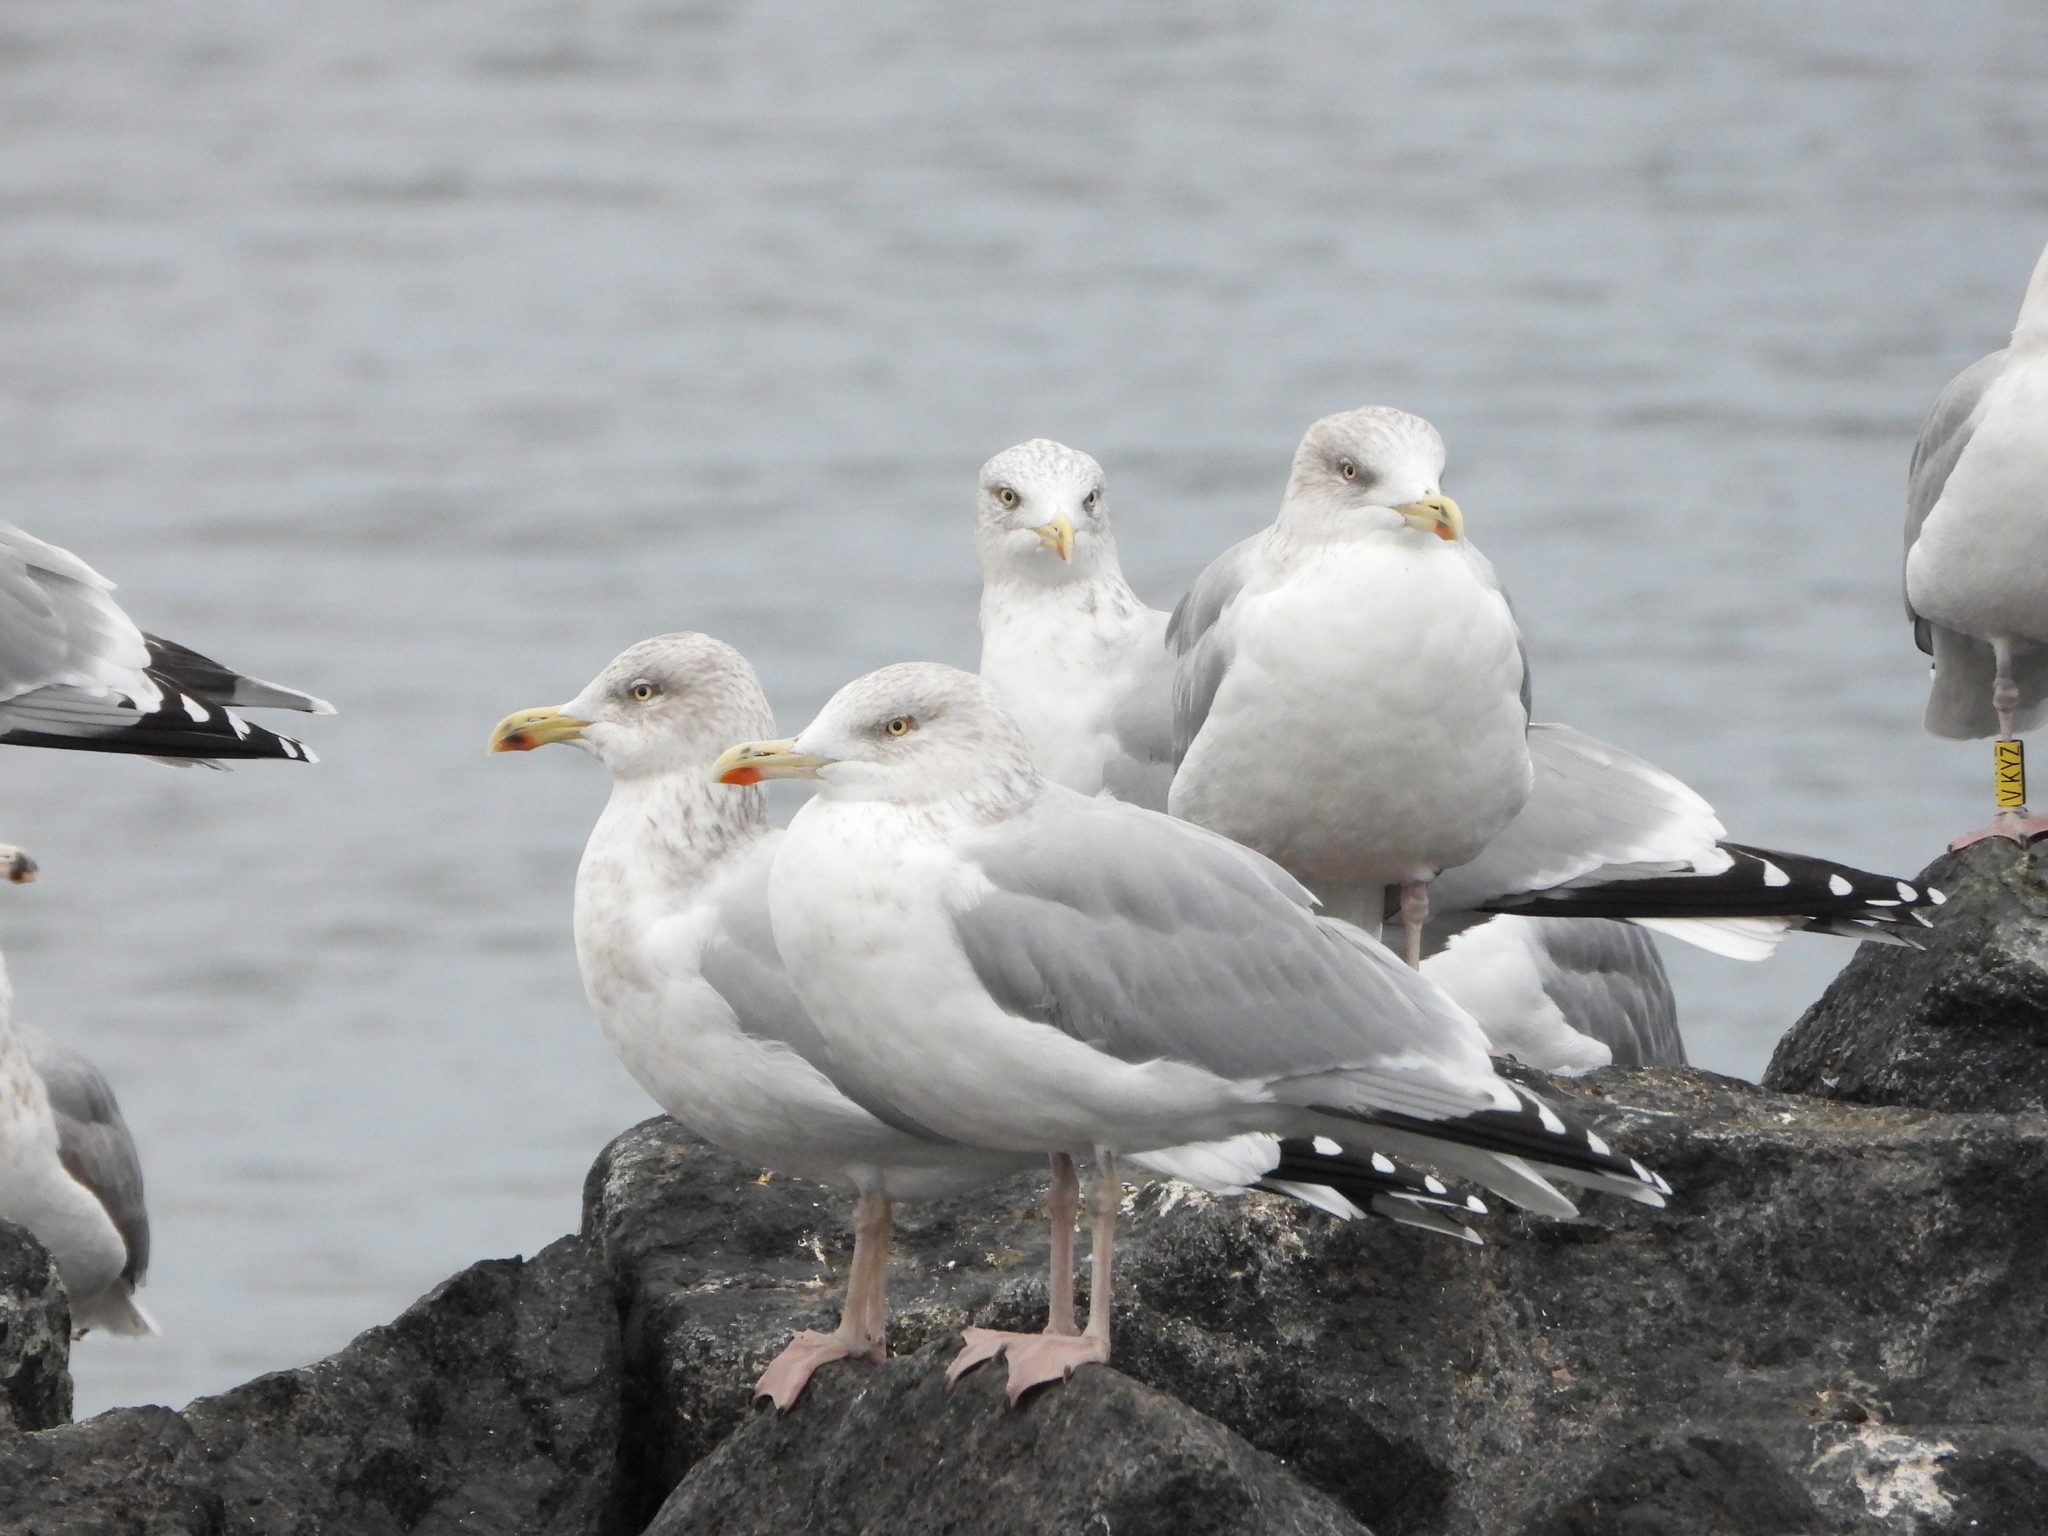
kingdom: Animalia
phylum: Chordata
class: Aves
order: Charadriiformes
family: Laridae
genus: Larus
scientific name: Larus argentatus
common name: Herring gull
